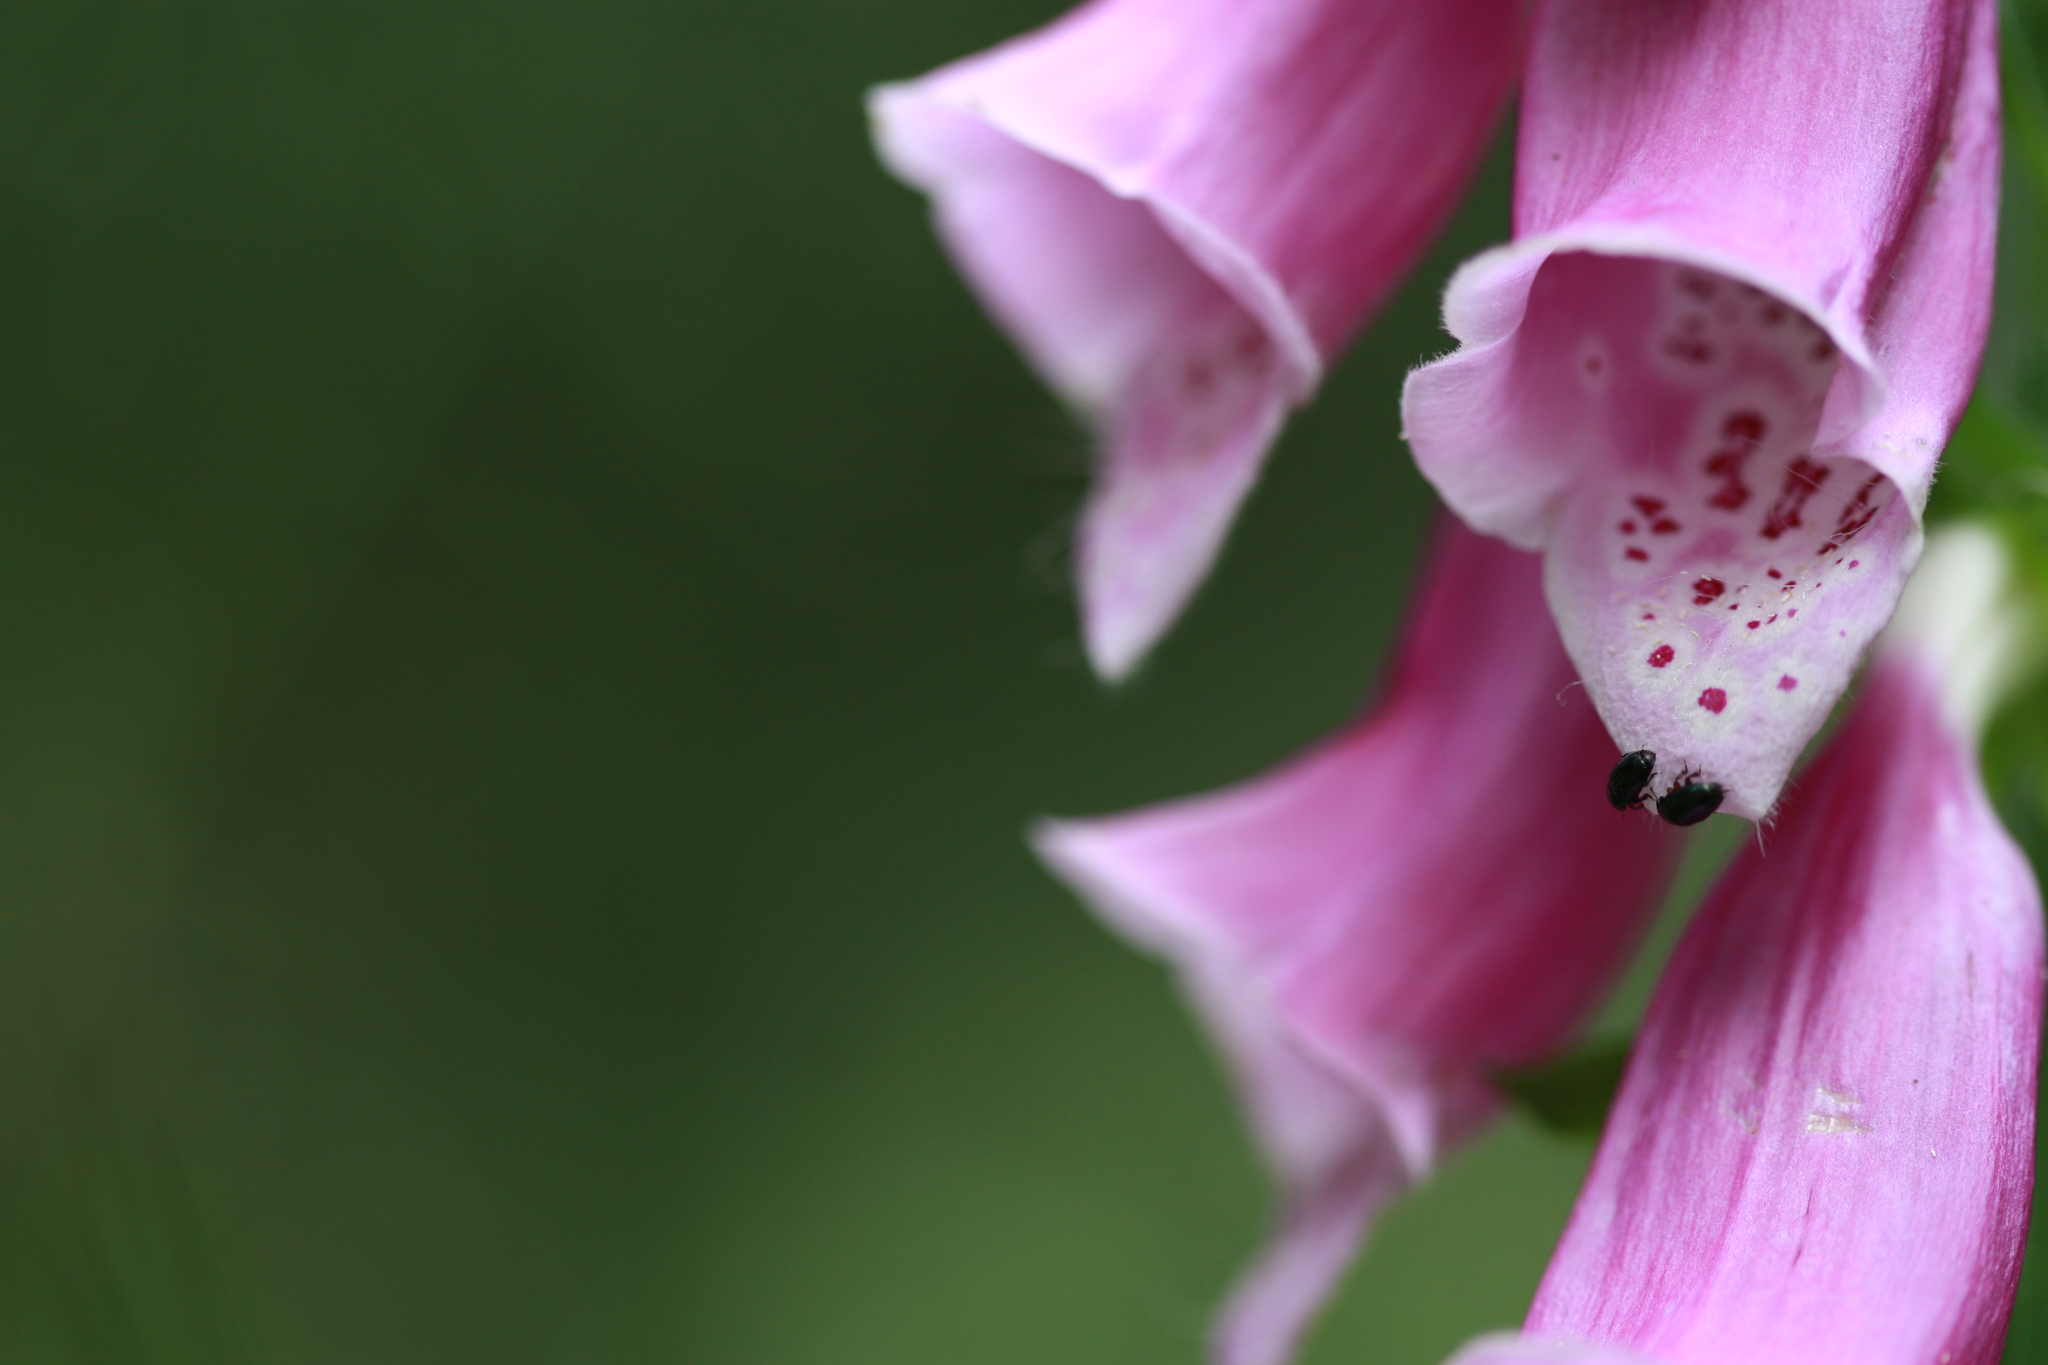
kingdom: Plantae
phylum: Tracheophyta
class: Magnoliopsida
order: Lamiales
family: Plantaginaceae
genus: Digitalis
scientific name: Digitalis purpurea
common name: Foxglove
